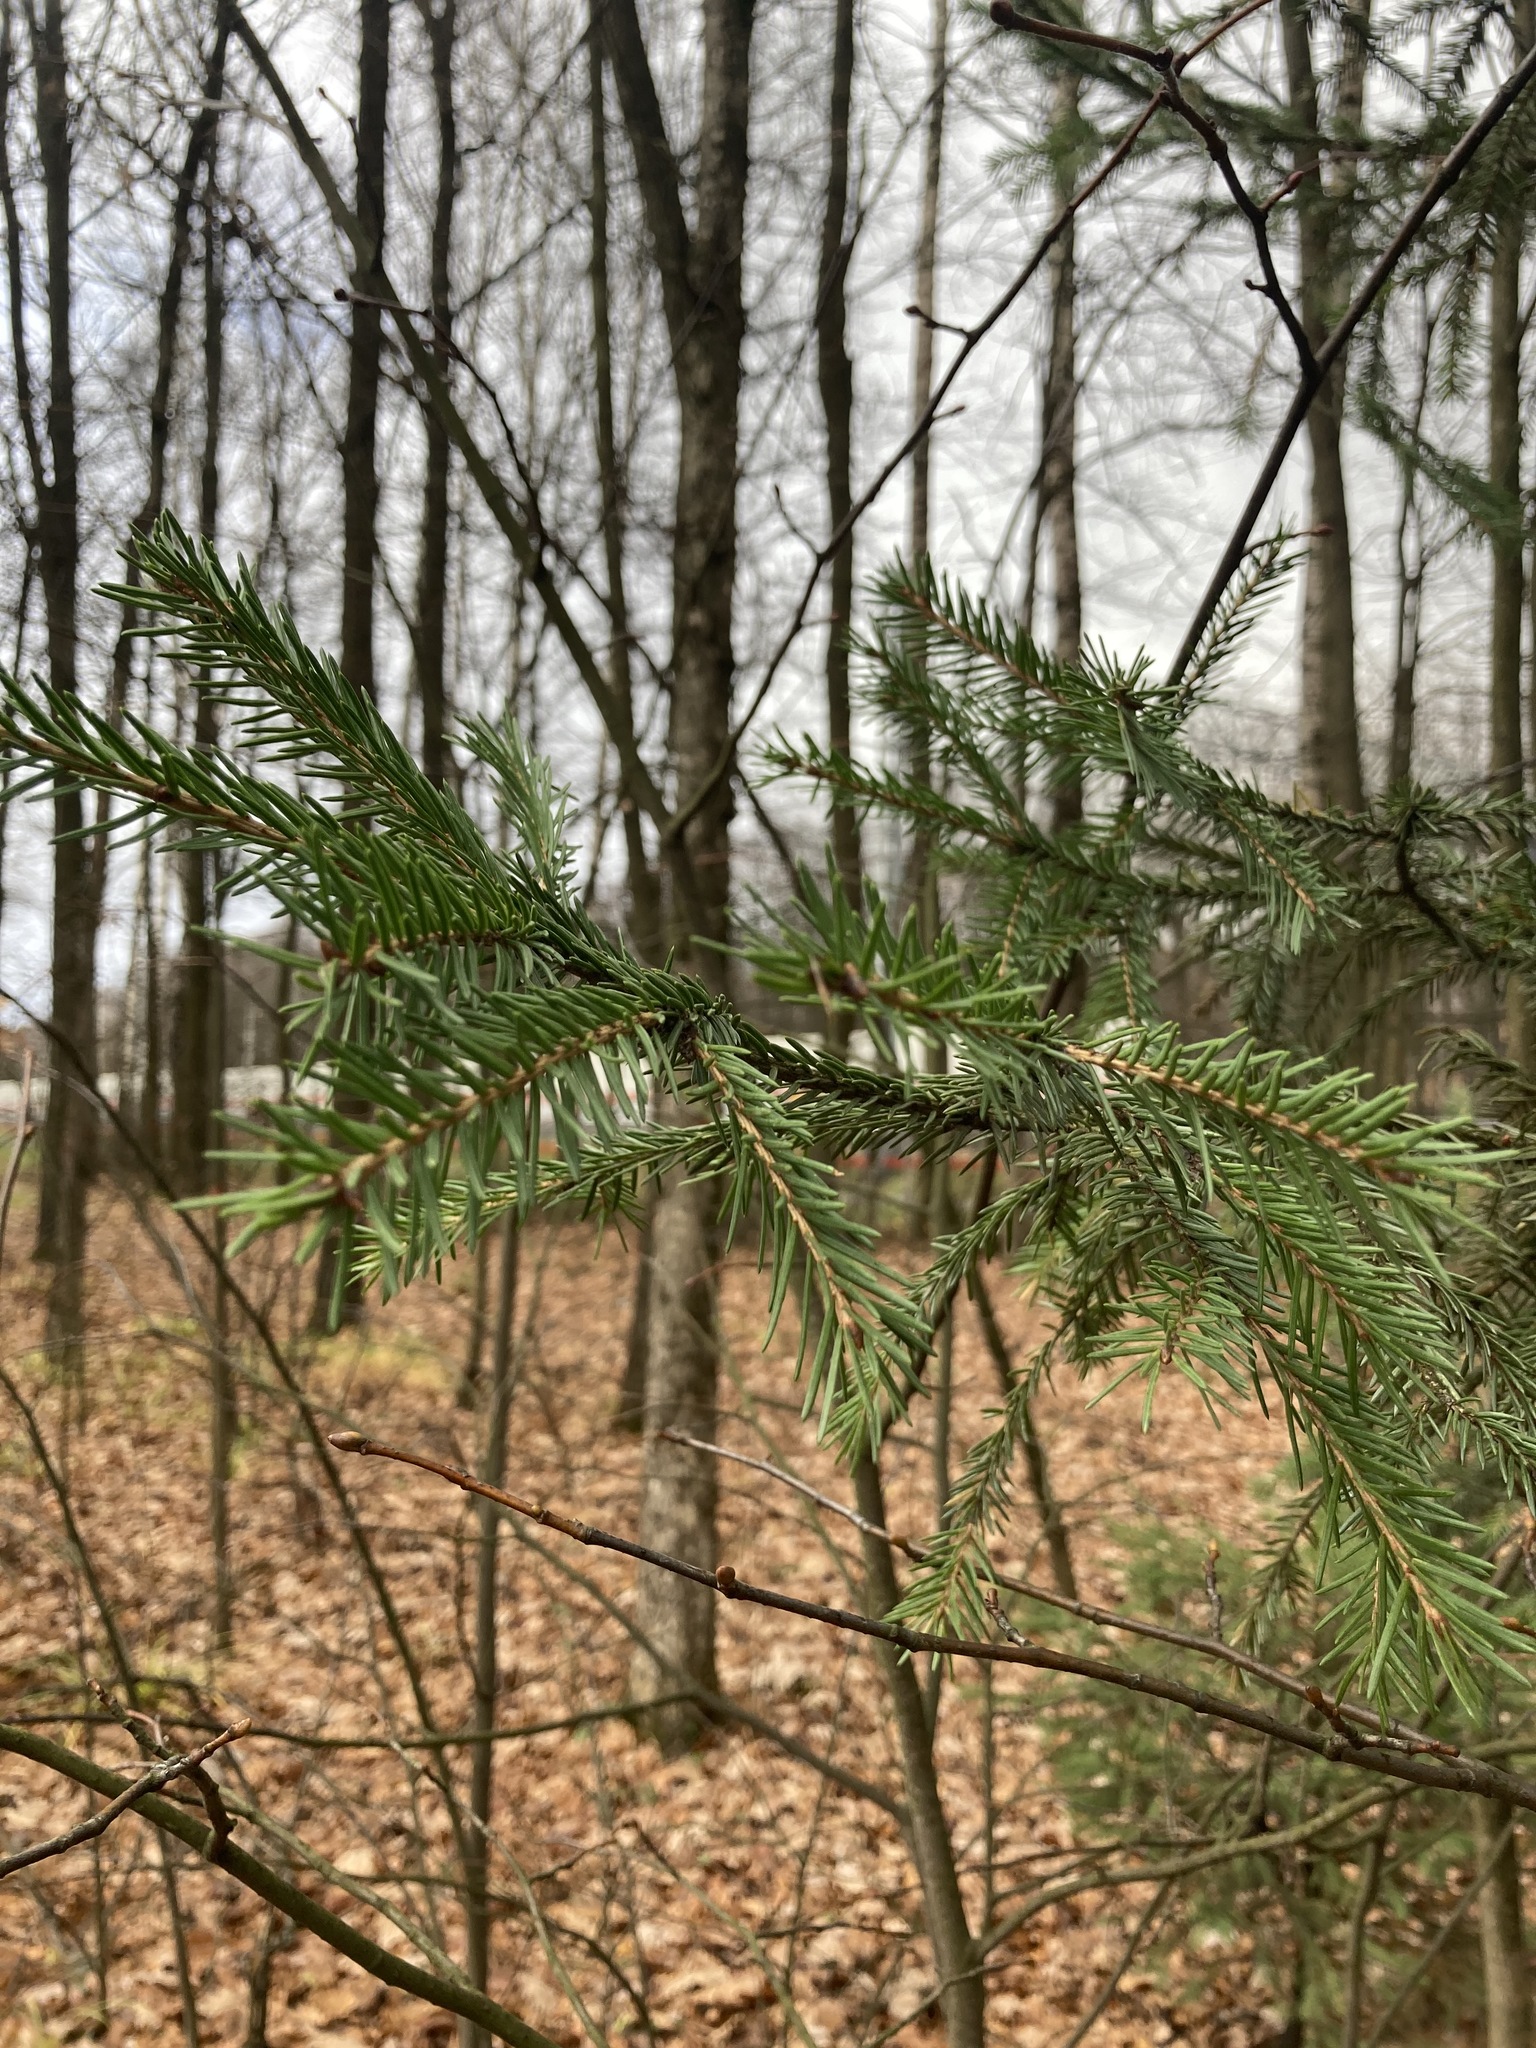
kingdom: Plantae
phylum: Tracheophyta
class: Pinopsida
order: Pinales
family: Pinaceae
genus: Picea
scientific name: Picea abies
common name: Norway spruce
